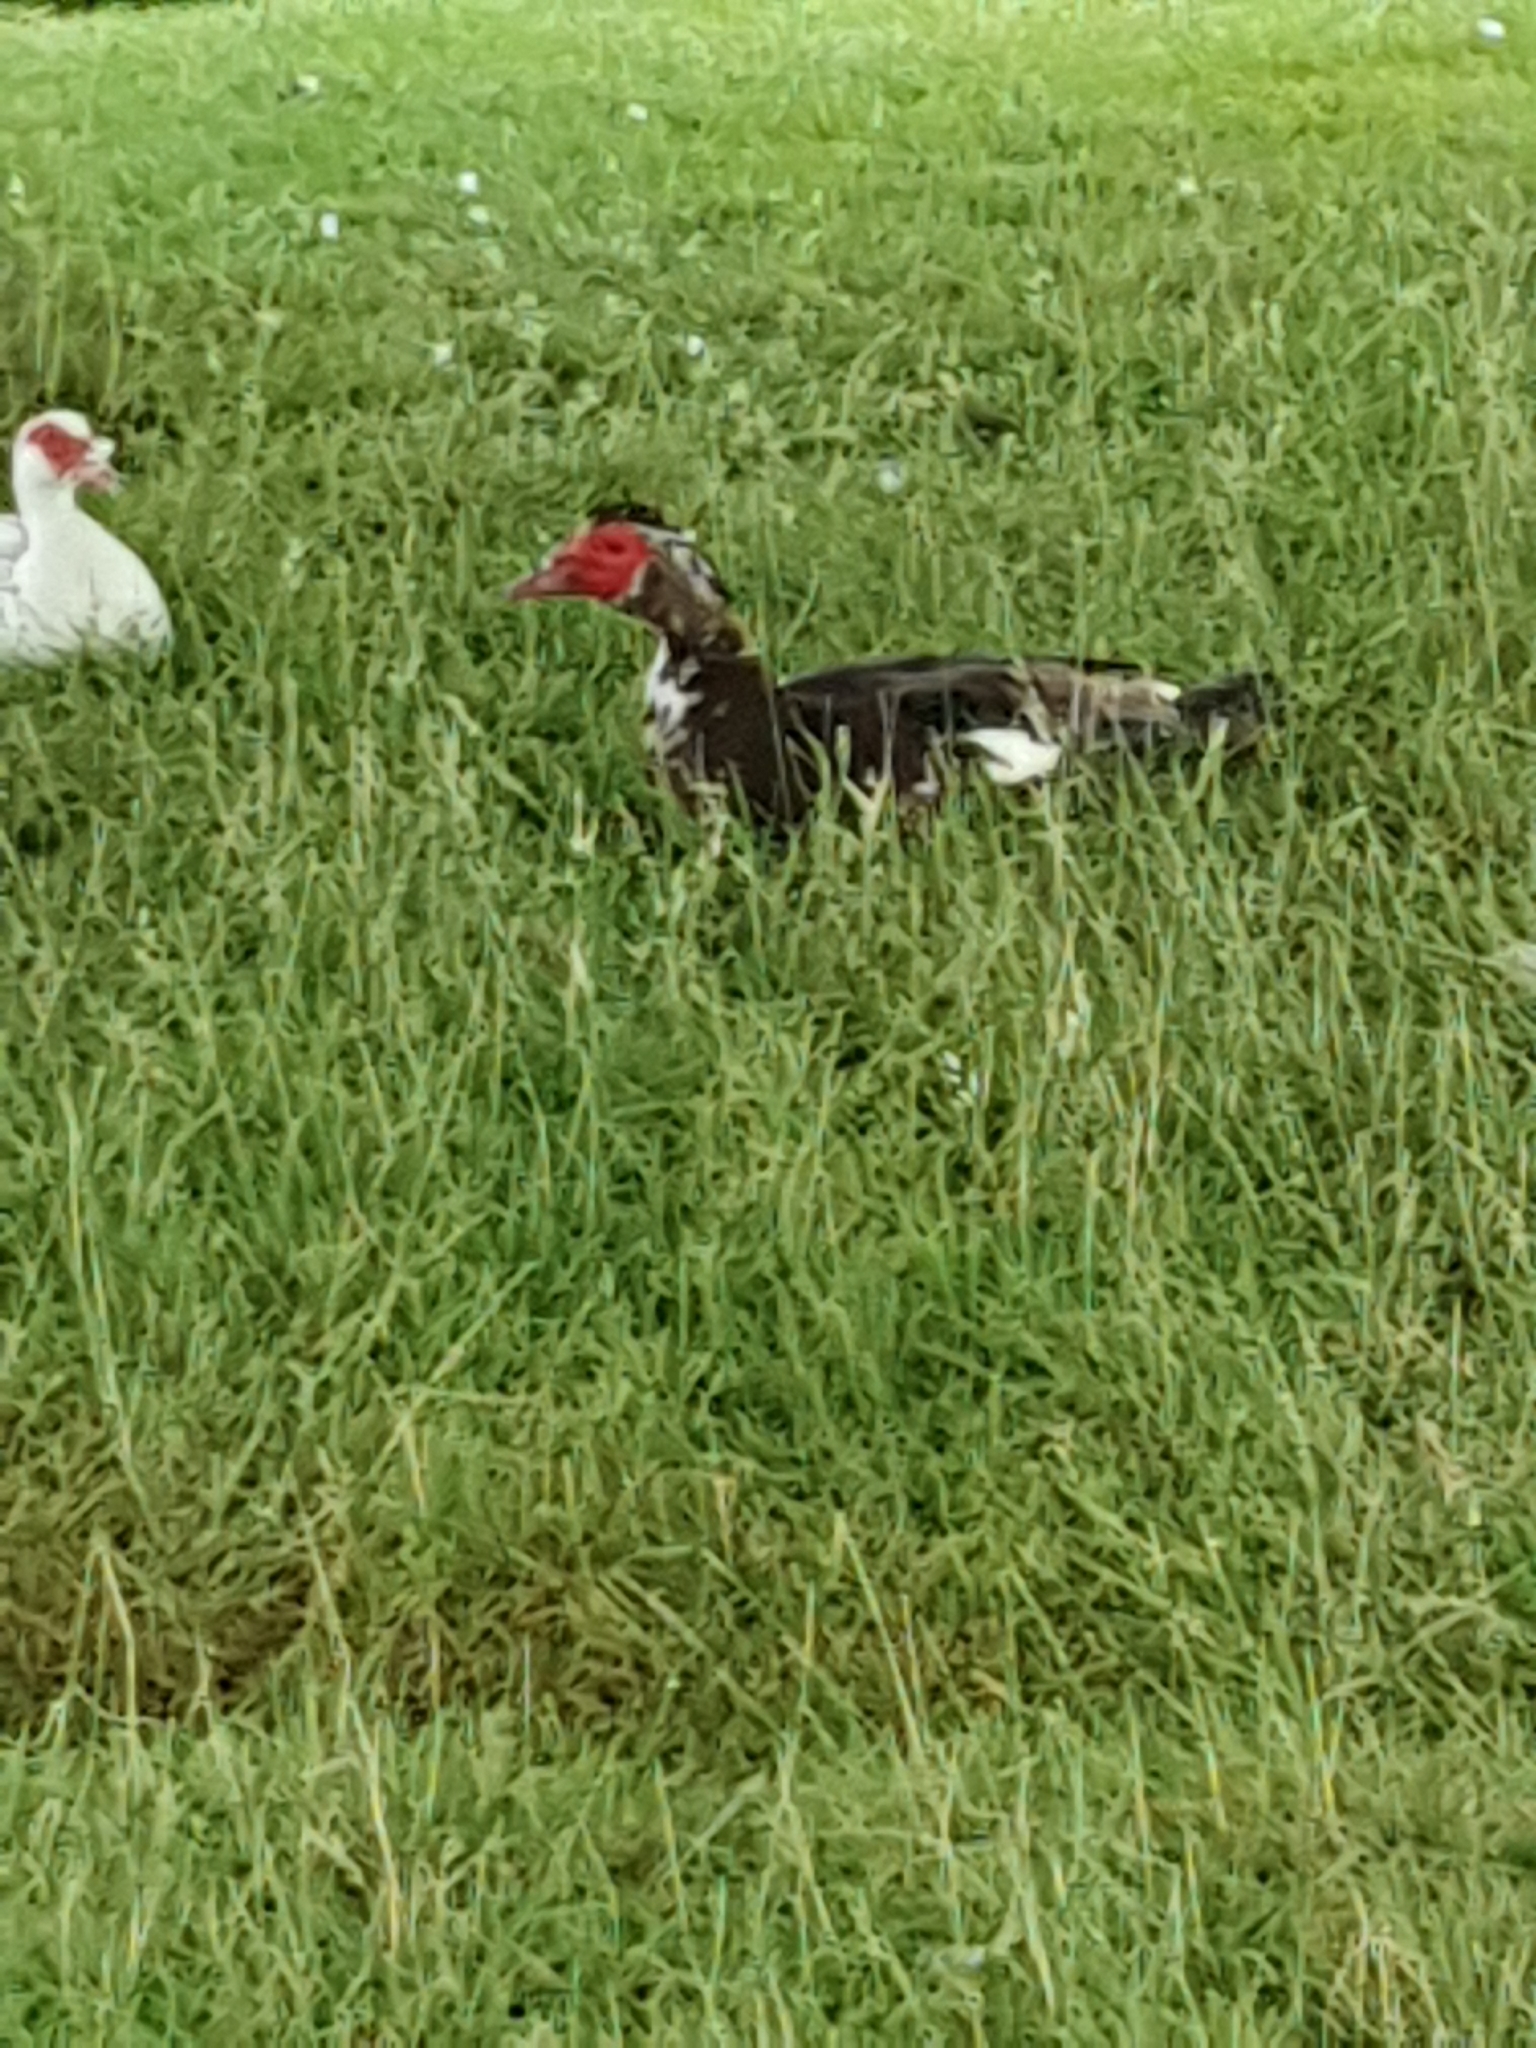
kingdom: Animalia
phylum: Chordata
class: Aves
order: Anseriformes
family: Anatidae
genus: Cairina
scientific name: Cairina moschata
